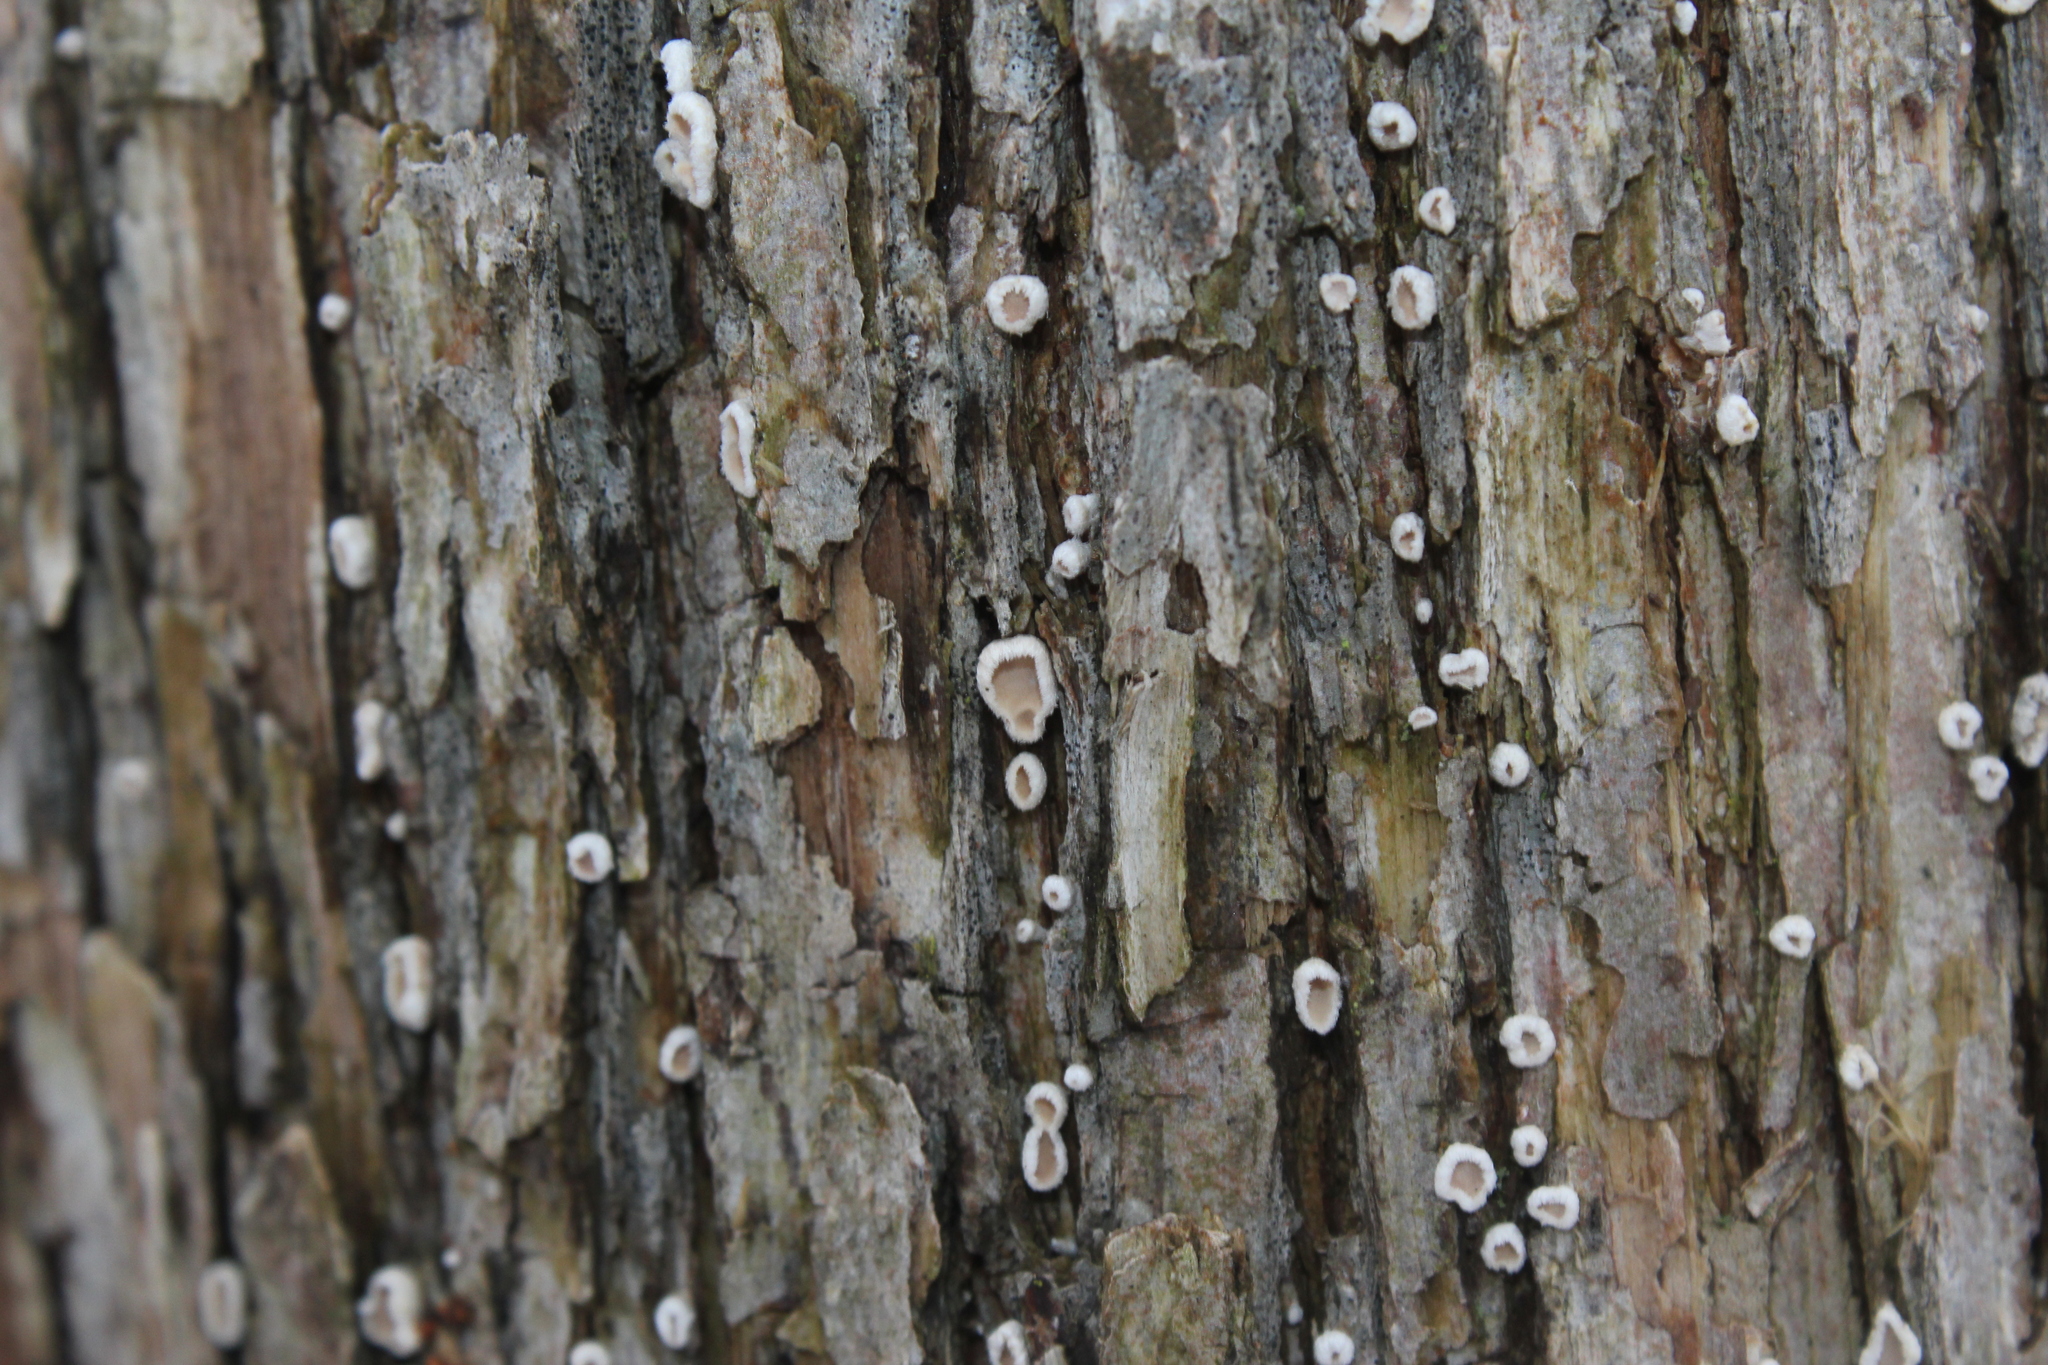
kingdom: Fungi
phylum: Basidiomycota
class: Agaricomycetes
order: Russulales
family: Stereaceae
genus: Acanthophysium
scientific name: Acanthophysium oakesii
